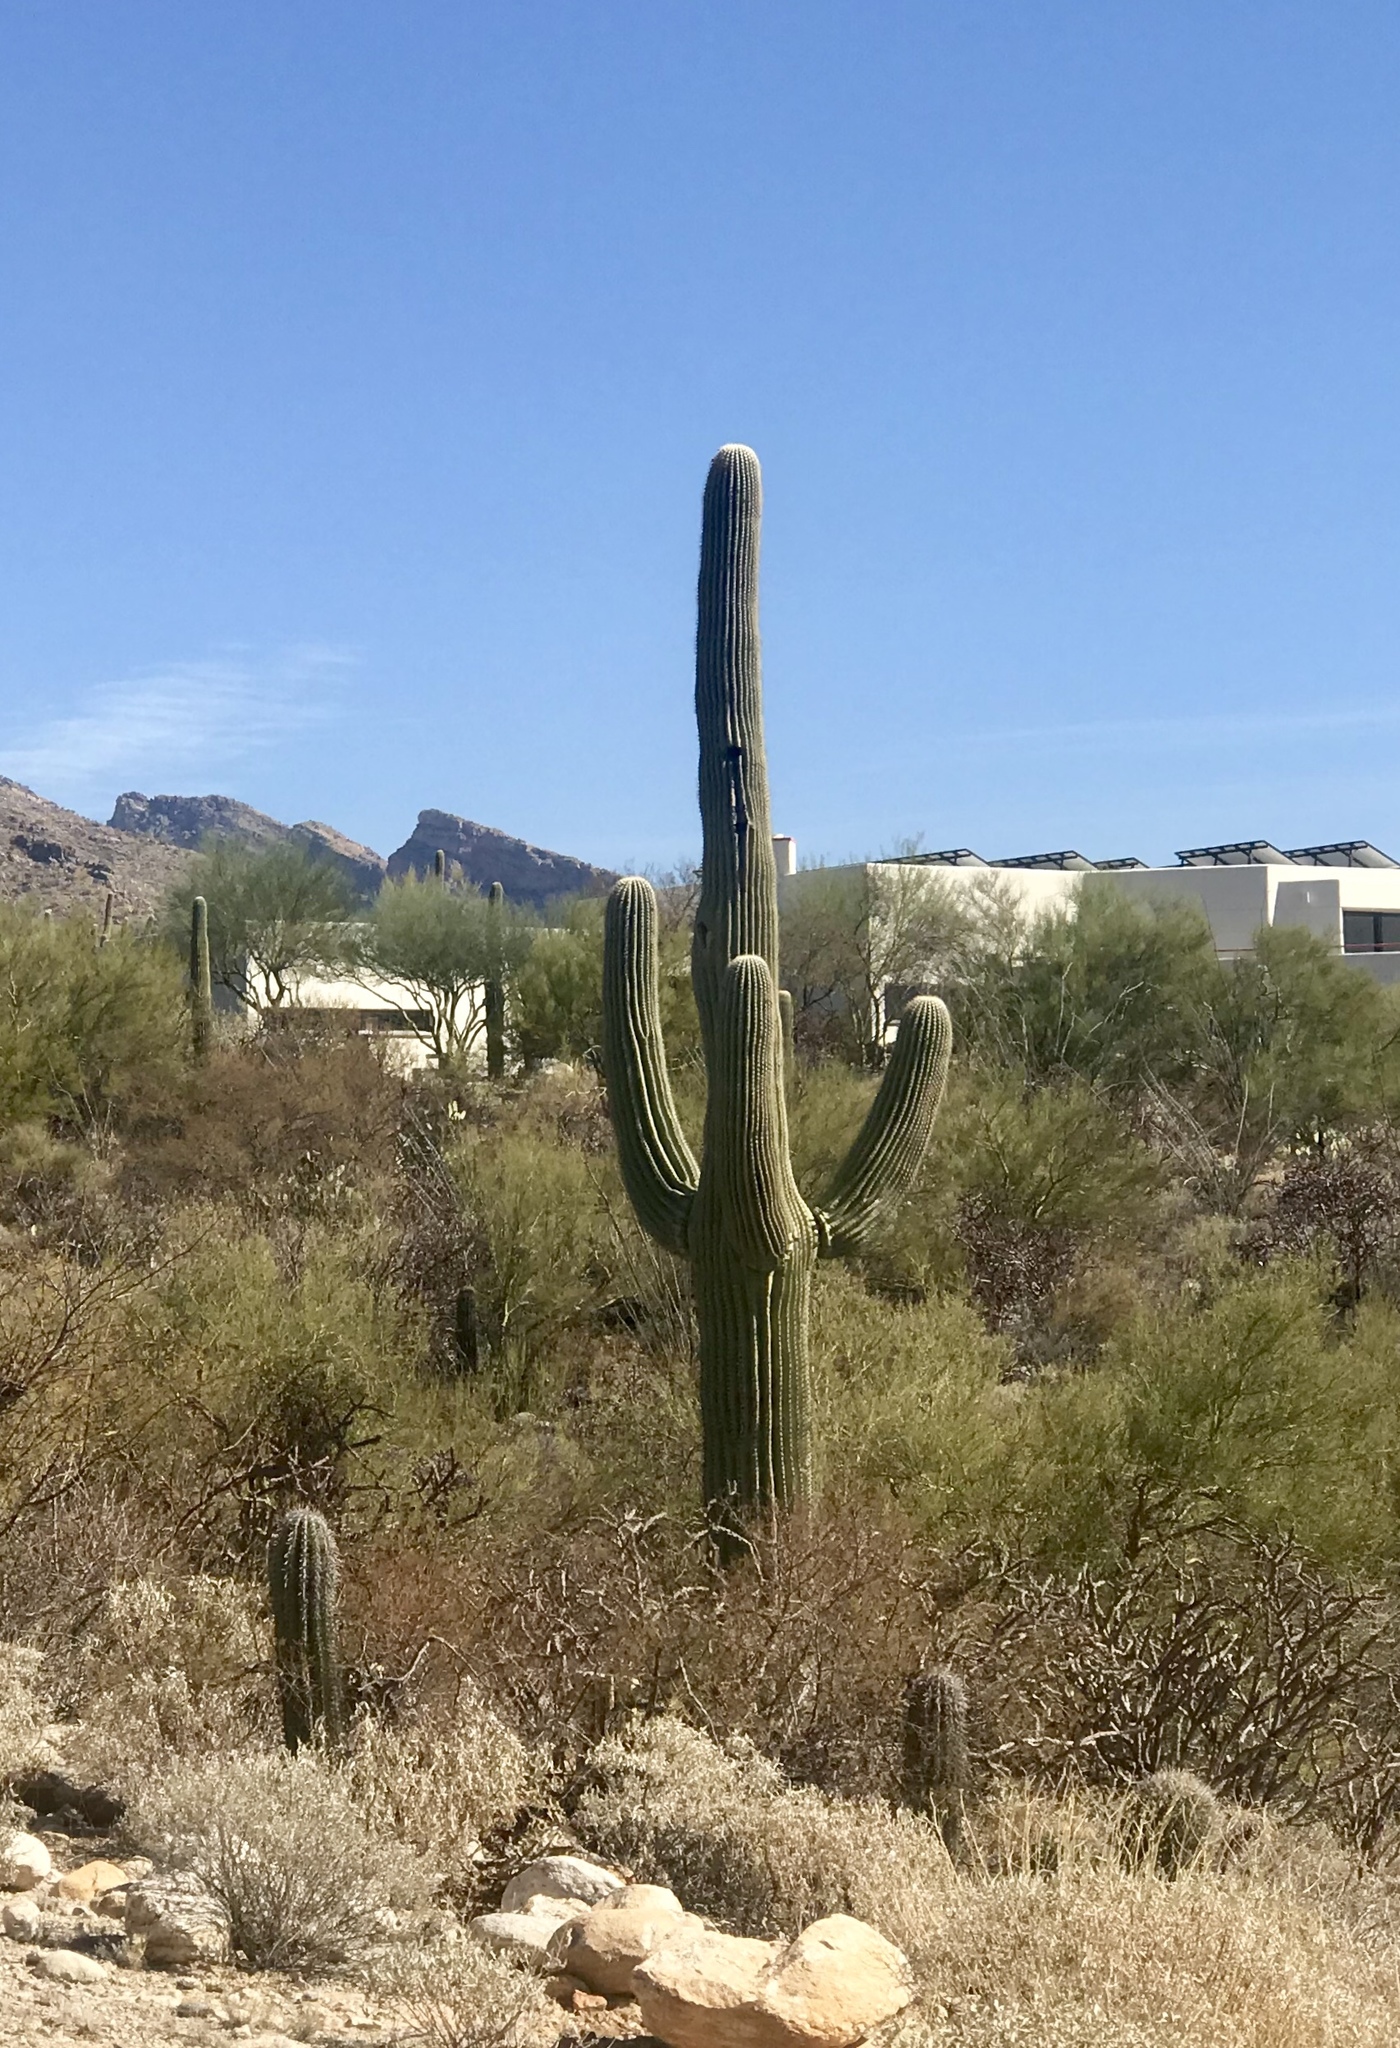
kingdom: Plantae
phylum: Tracheophyta
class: Magnoliopsida
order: Caryophyllales
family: Cactaceae
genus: Carnegiea
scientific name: Carnegiea gigantea
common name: Saguaro
